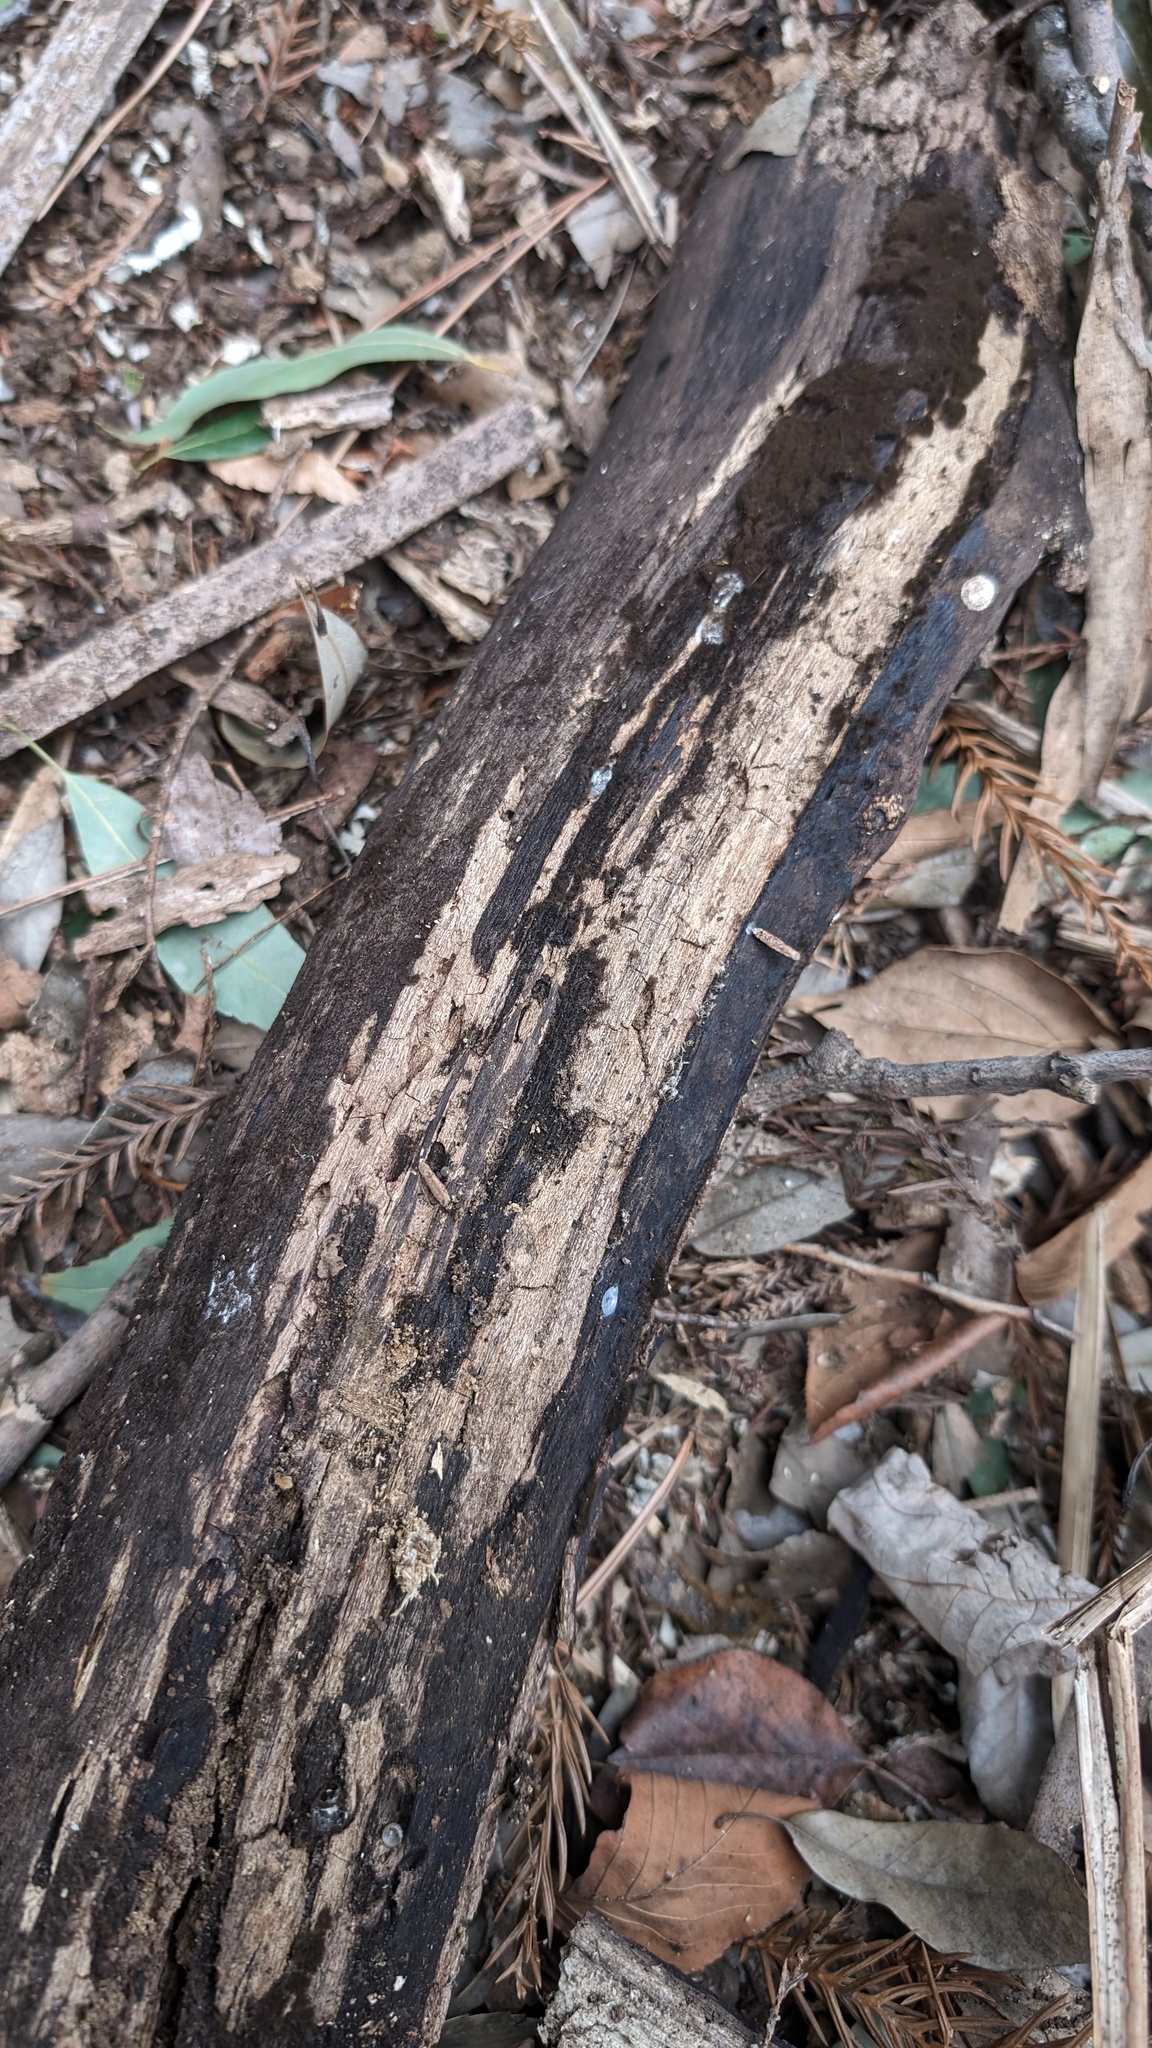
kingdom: Fungi
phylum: Ascomycota
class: Pezizomycetes
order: Pezizales
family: Pyronemataceae
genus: Trichaleurina
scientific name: Trichaleurina tenuispora
